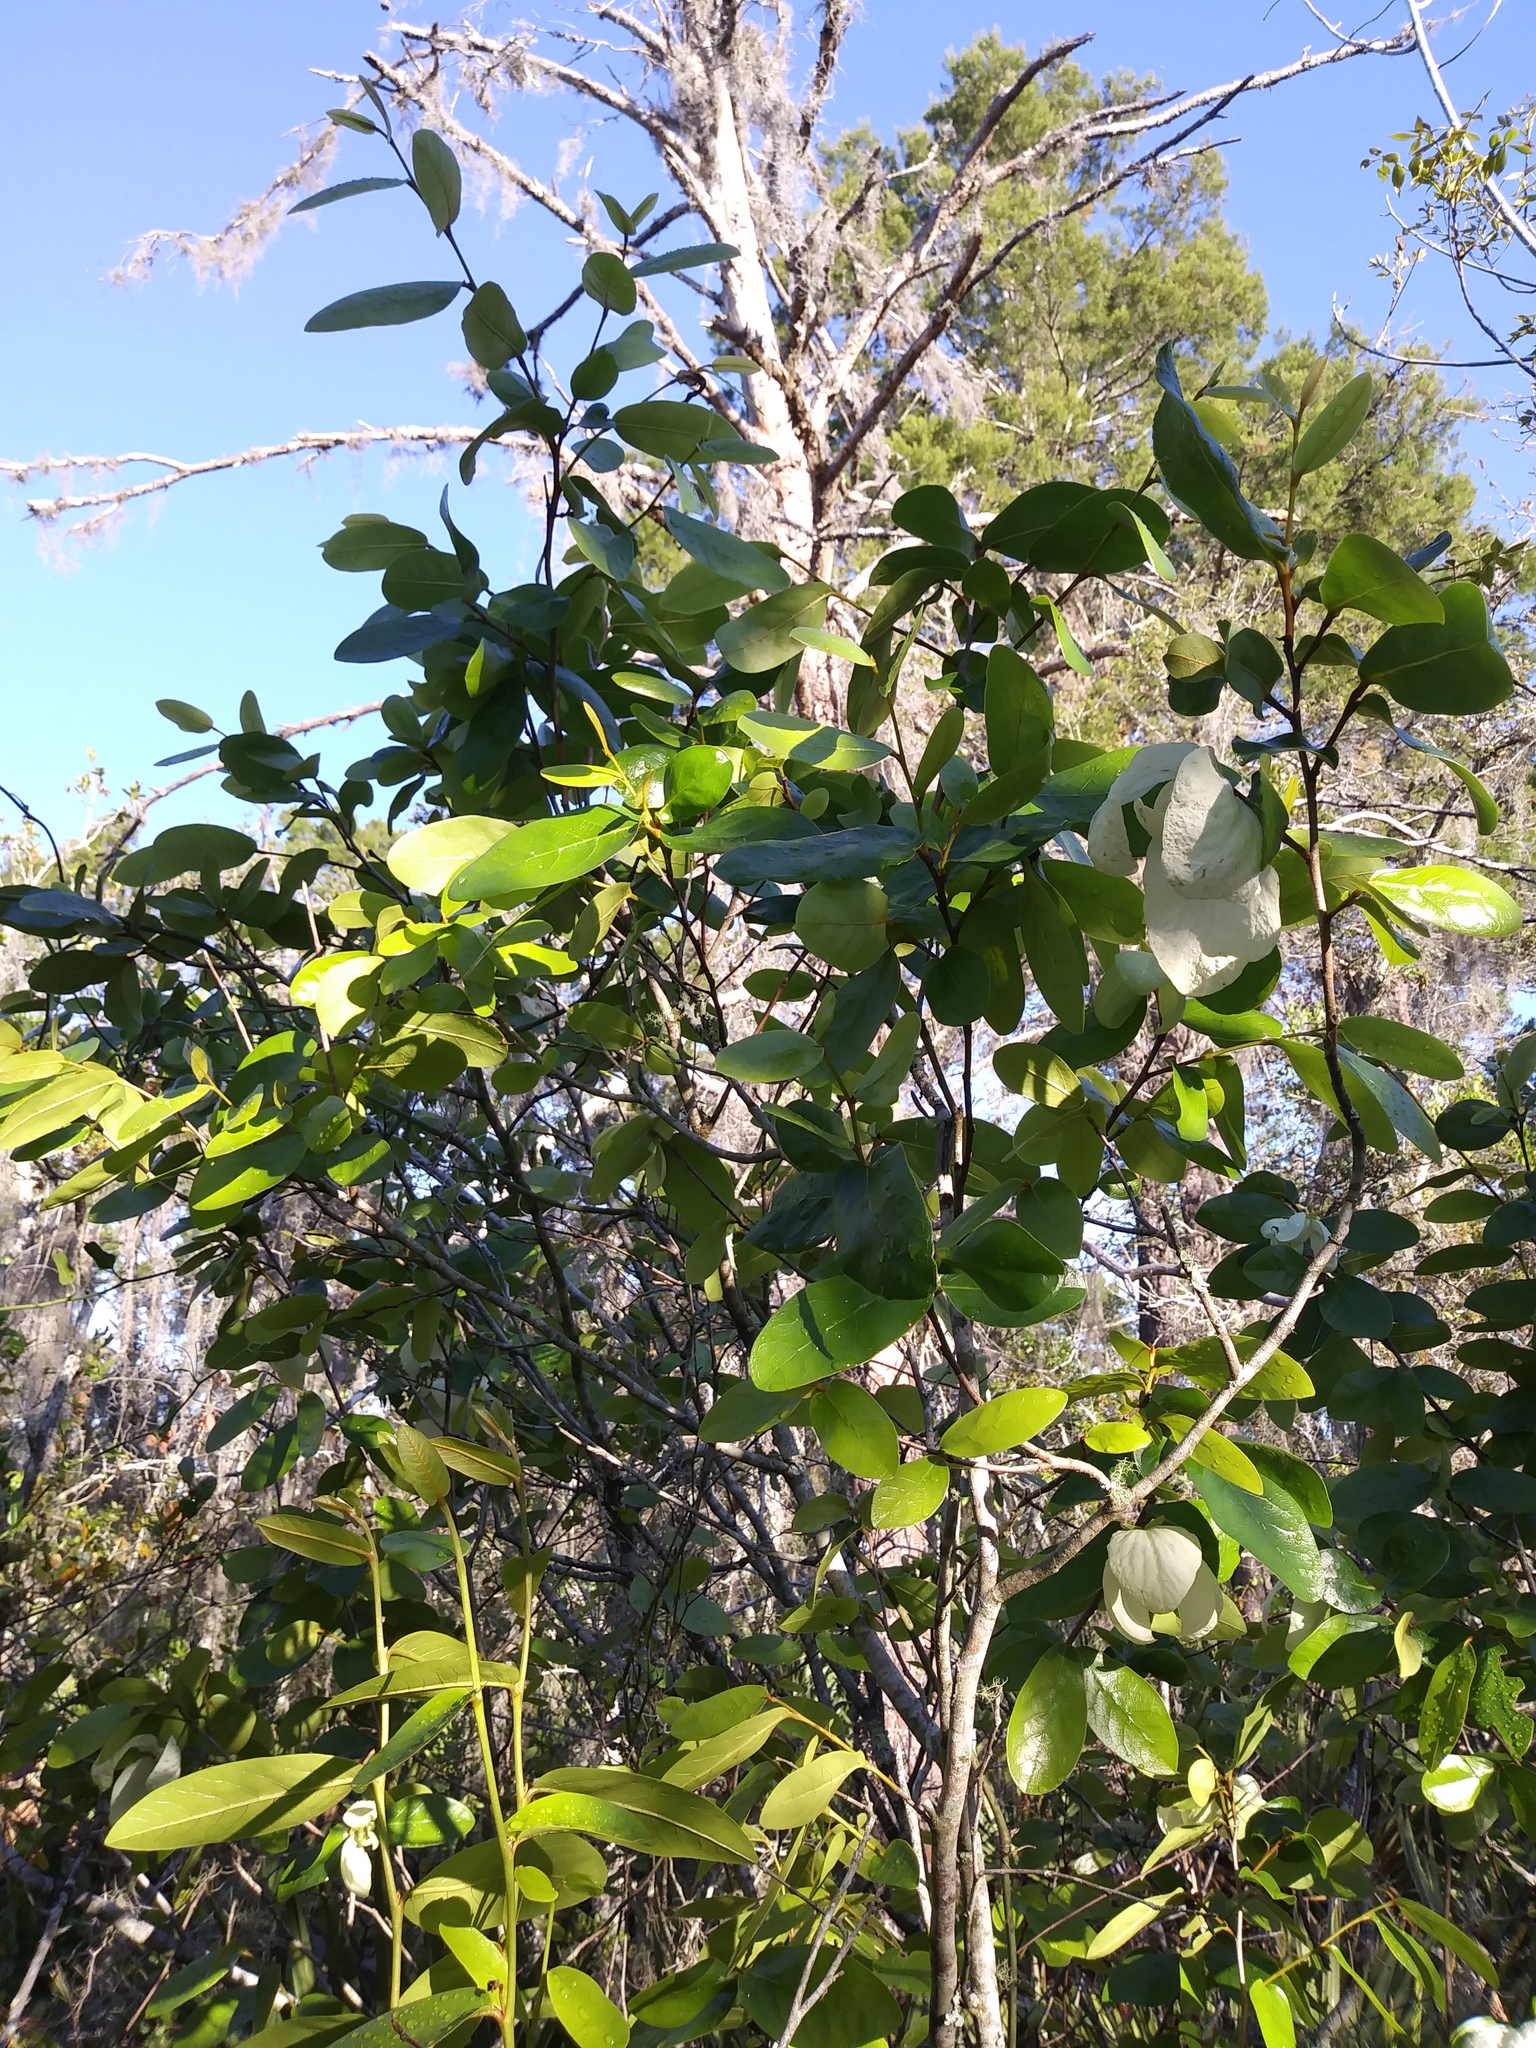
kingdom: Plantae
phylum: Tracheophyta
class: Magnoliopsida
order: Magnoliales
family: Annonaceae
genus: Asimina
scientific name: Asimina obovata
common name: Flag pawpaw
